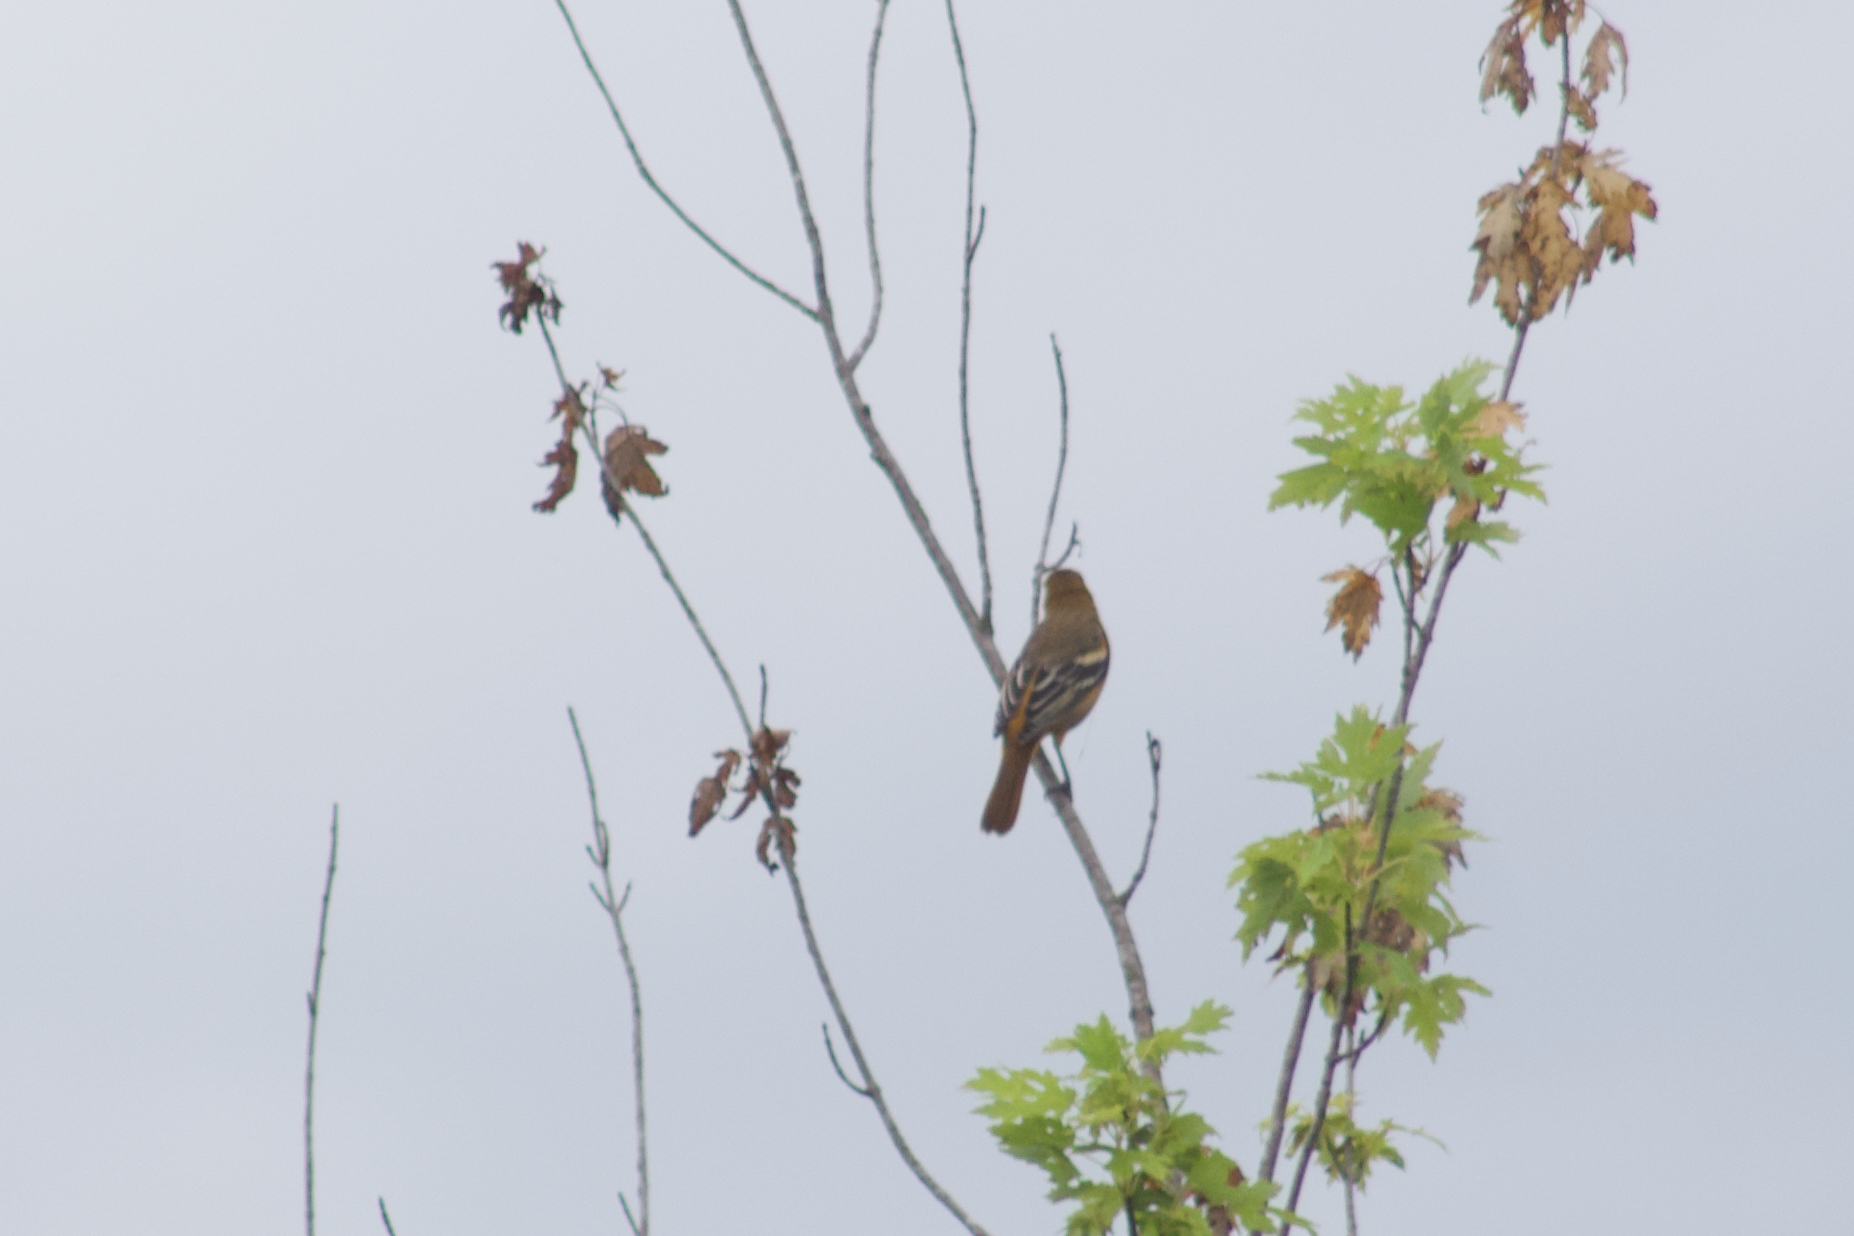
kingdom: Animalia
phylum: Chordata
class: Aves
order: Passeriformes
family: Icteridae
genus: Icterus
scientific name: Icterus galbula
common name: Baltimore oriole
